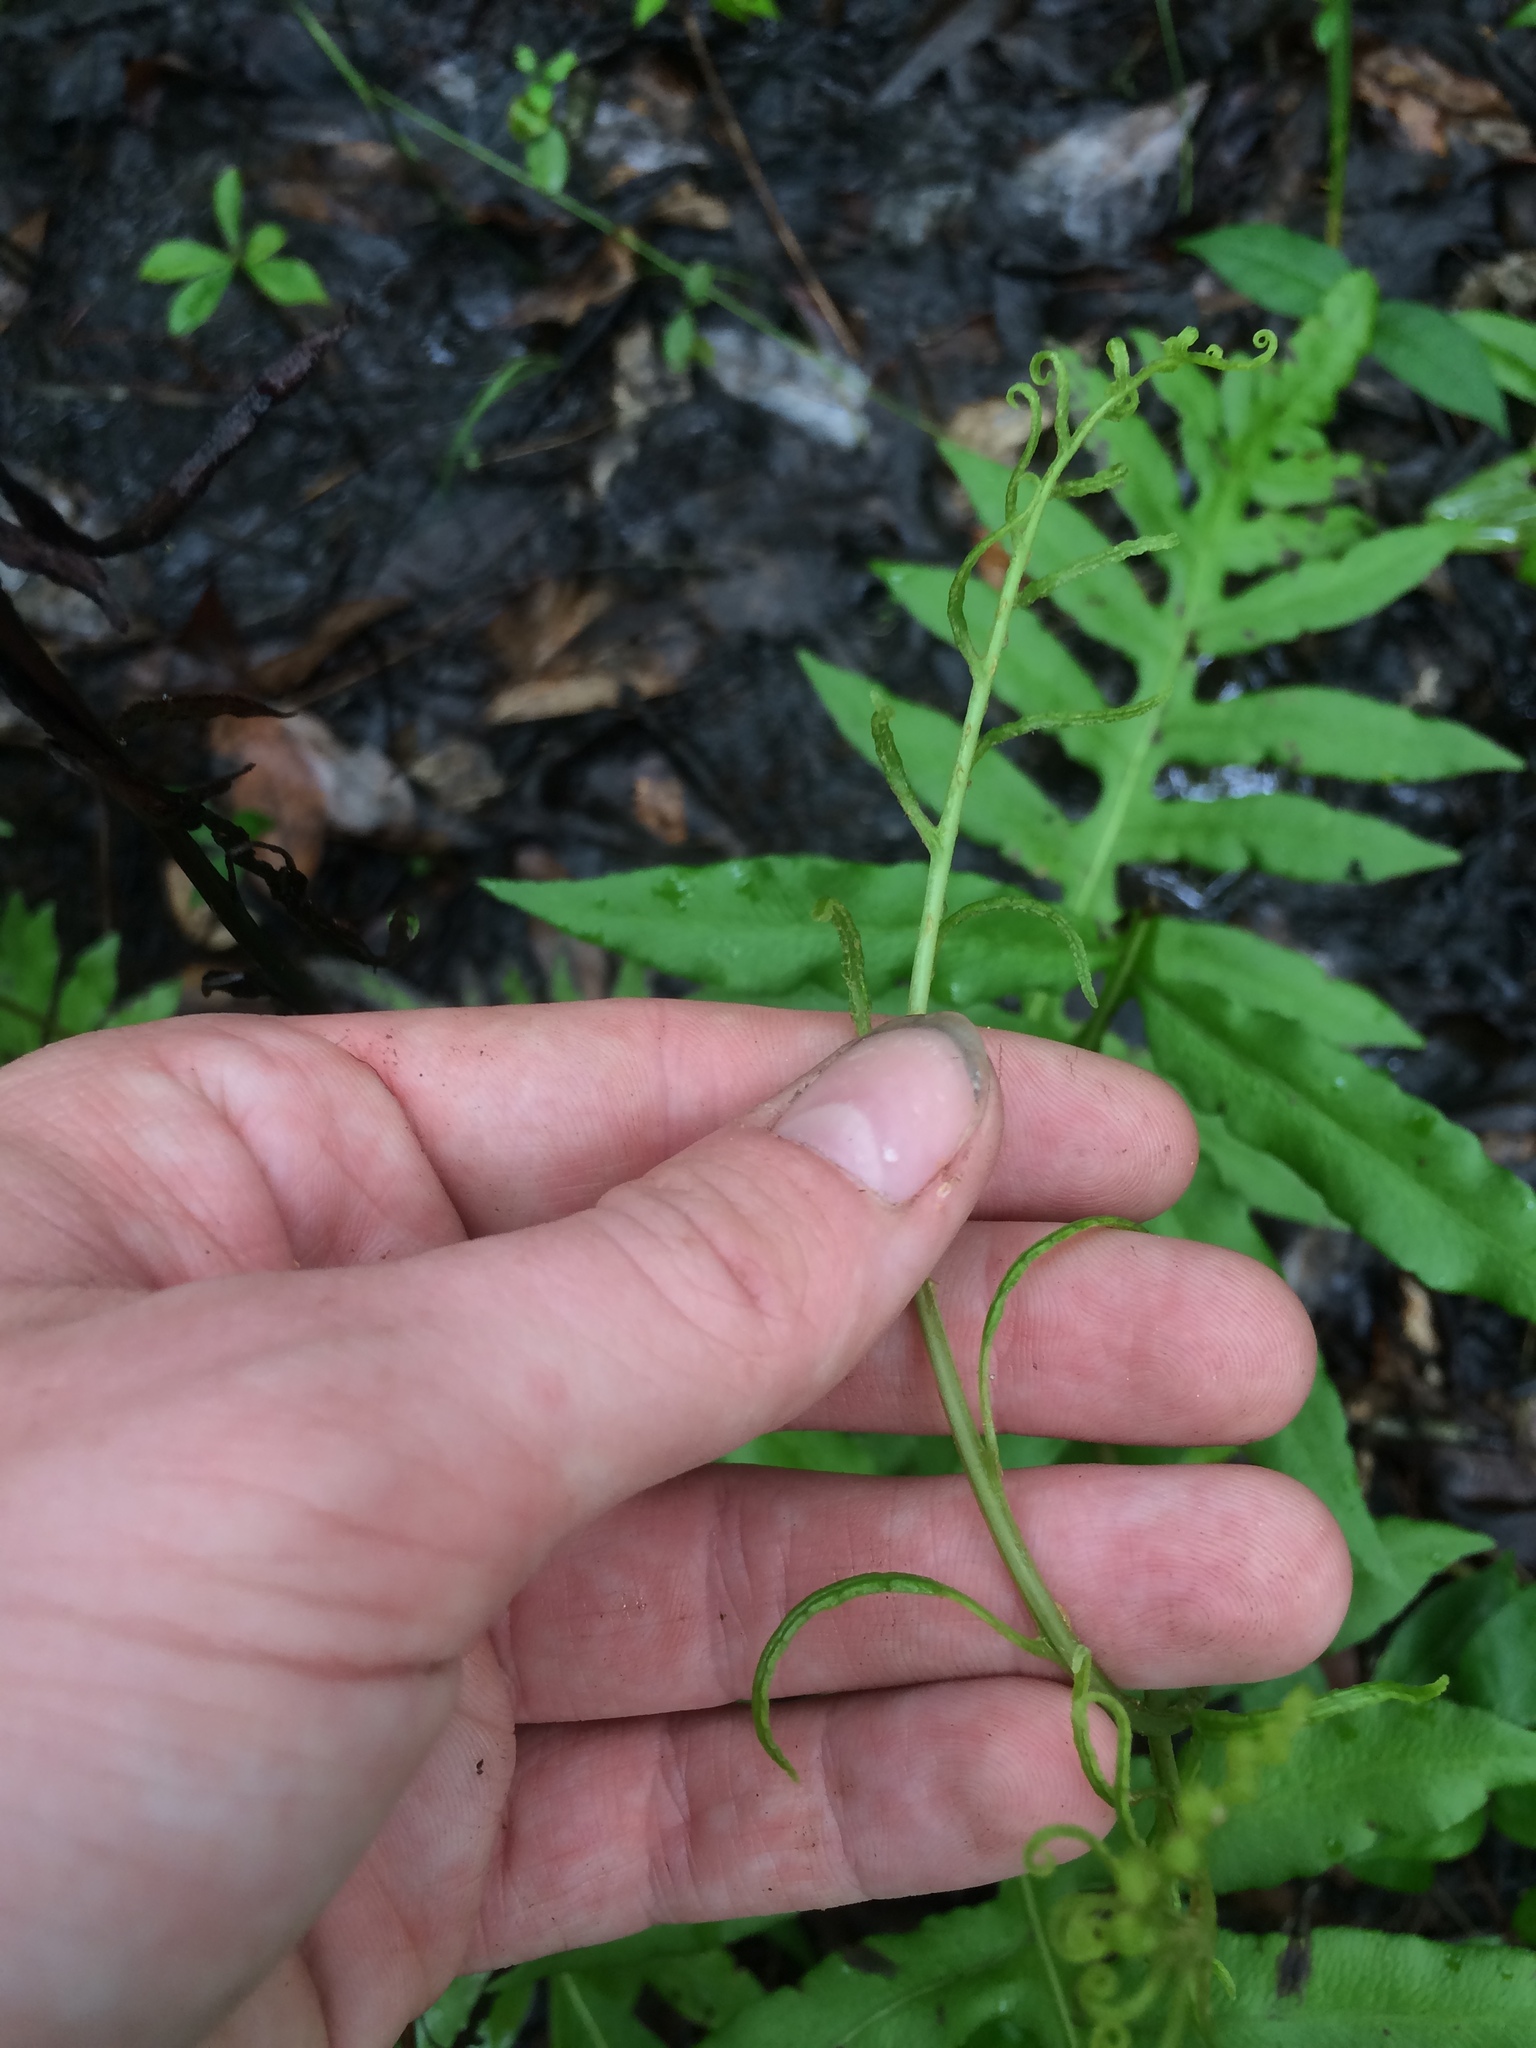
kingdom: Plantae
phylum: Tracheophyta
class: Polypodiopsida
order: Polypodiales
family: Blechnaceae
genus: Lorinseria
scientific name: Lorinseria areolata
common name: Dwarf chain fern
